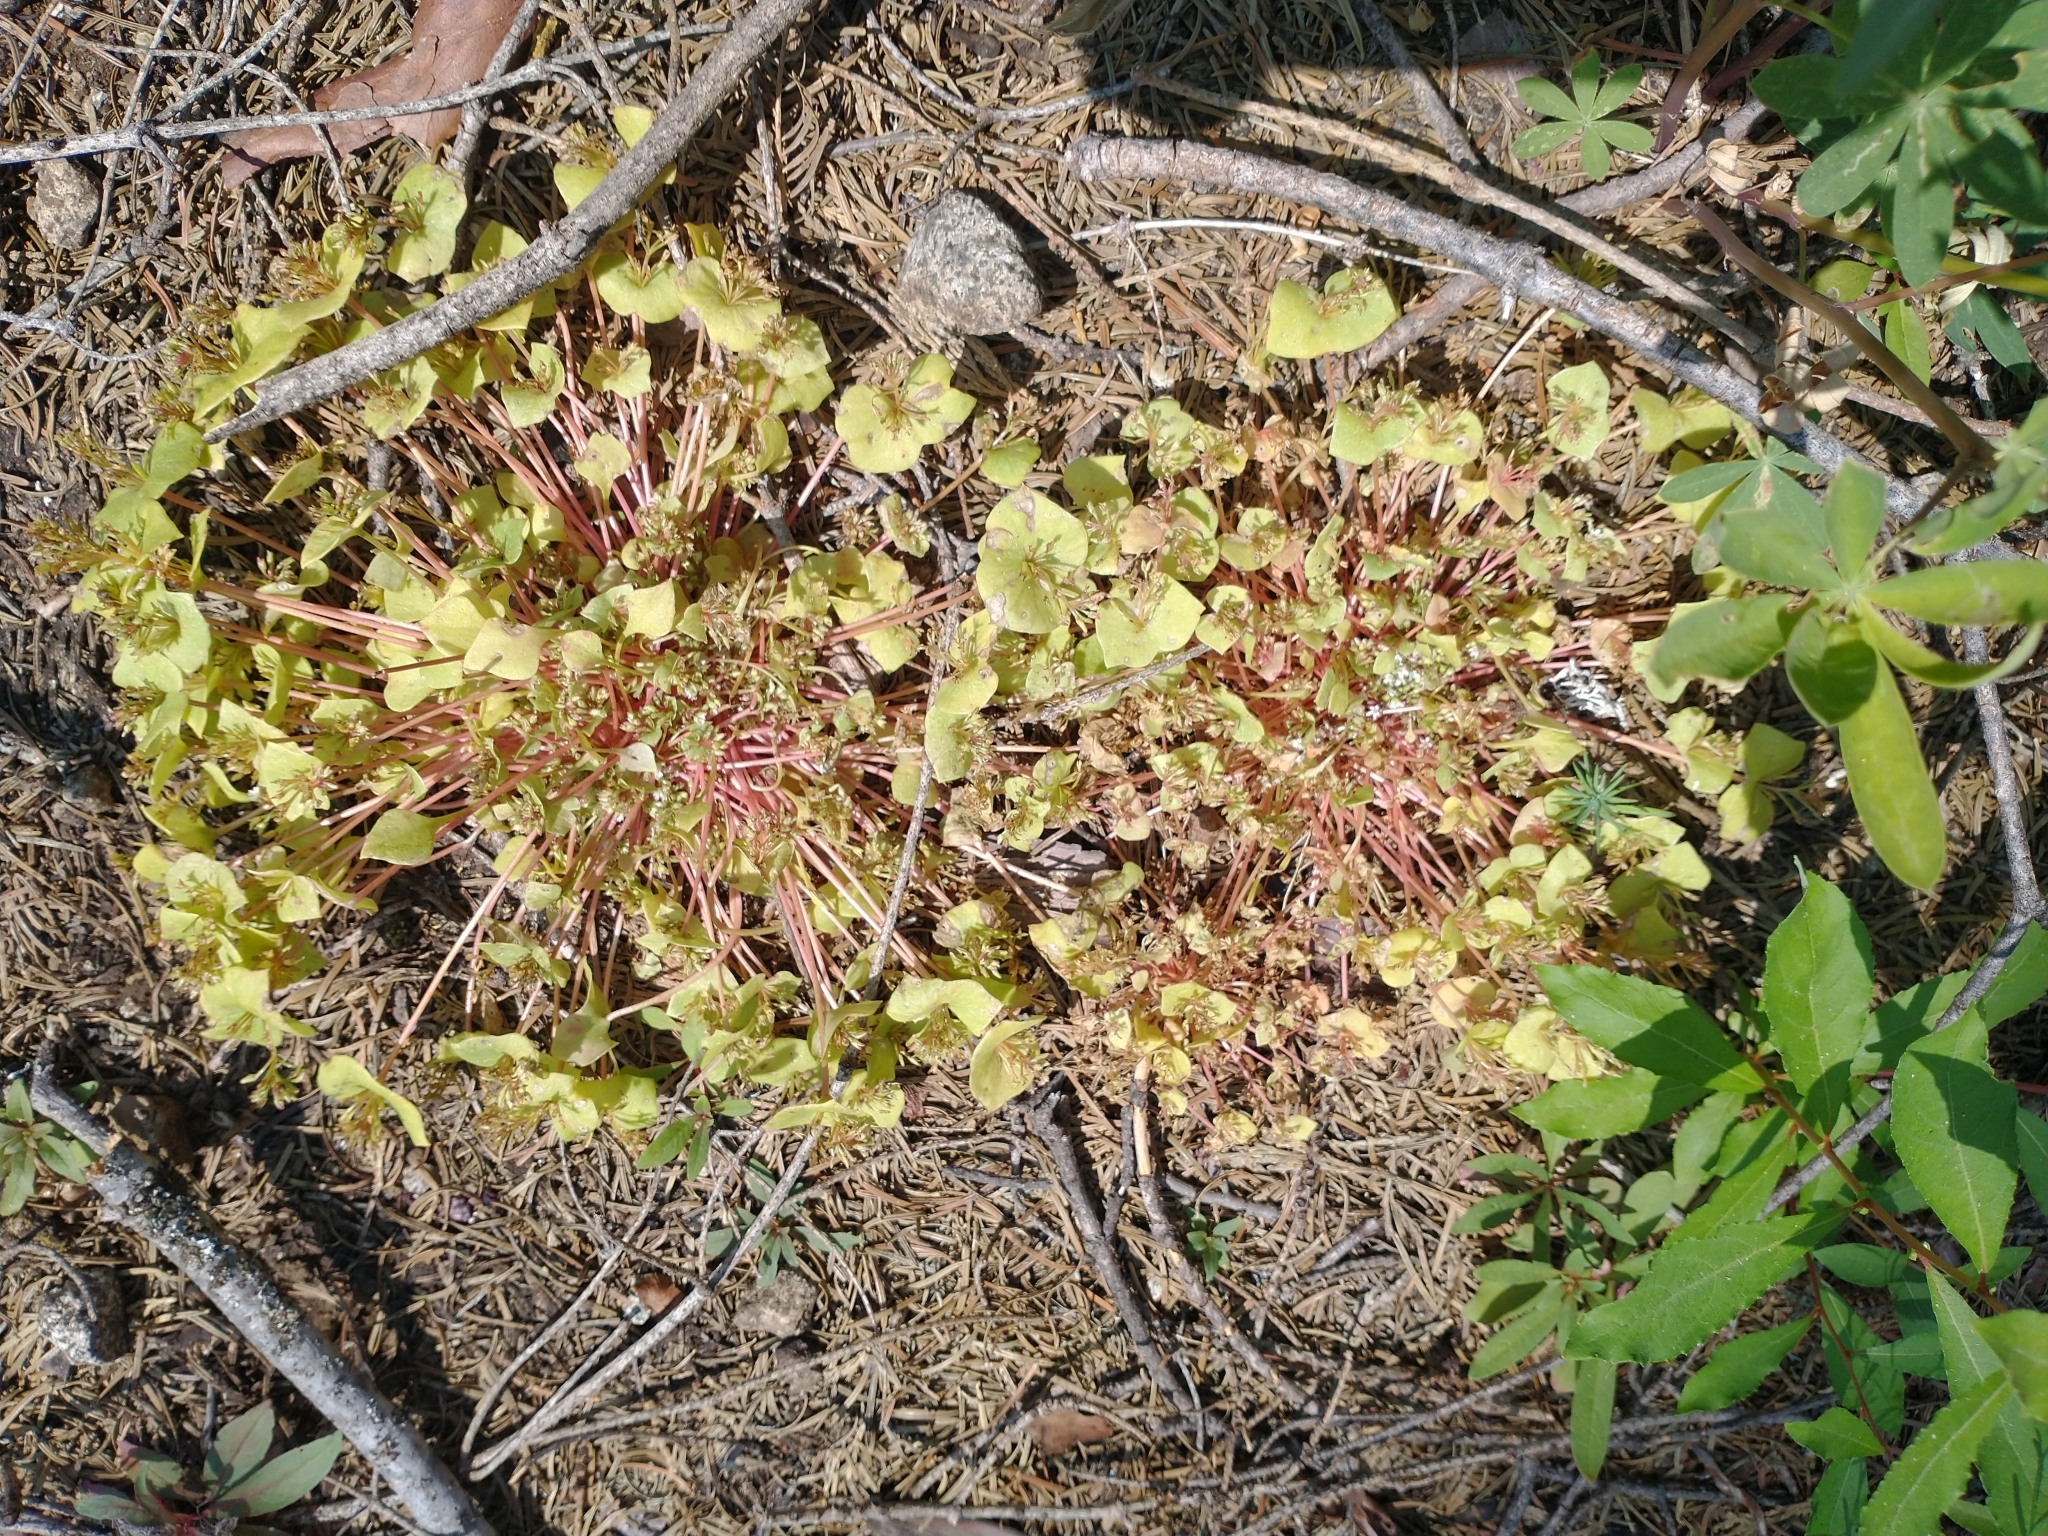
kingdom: Plantae
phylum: Tracheophyta
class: Magnoliopsida
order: Caryophyllales
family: Montiaceae
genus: Claytonia
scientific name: Claytonia rubra
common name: Erubescent miner's-lettuce
